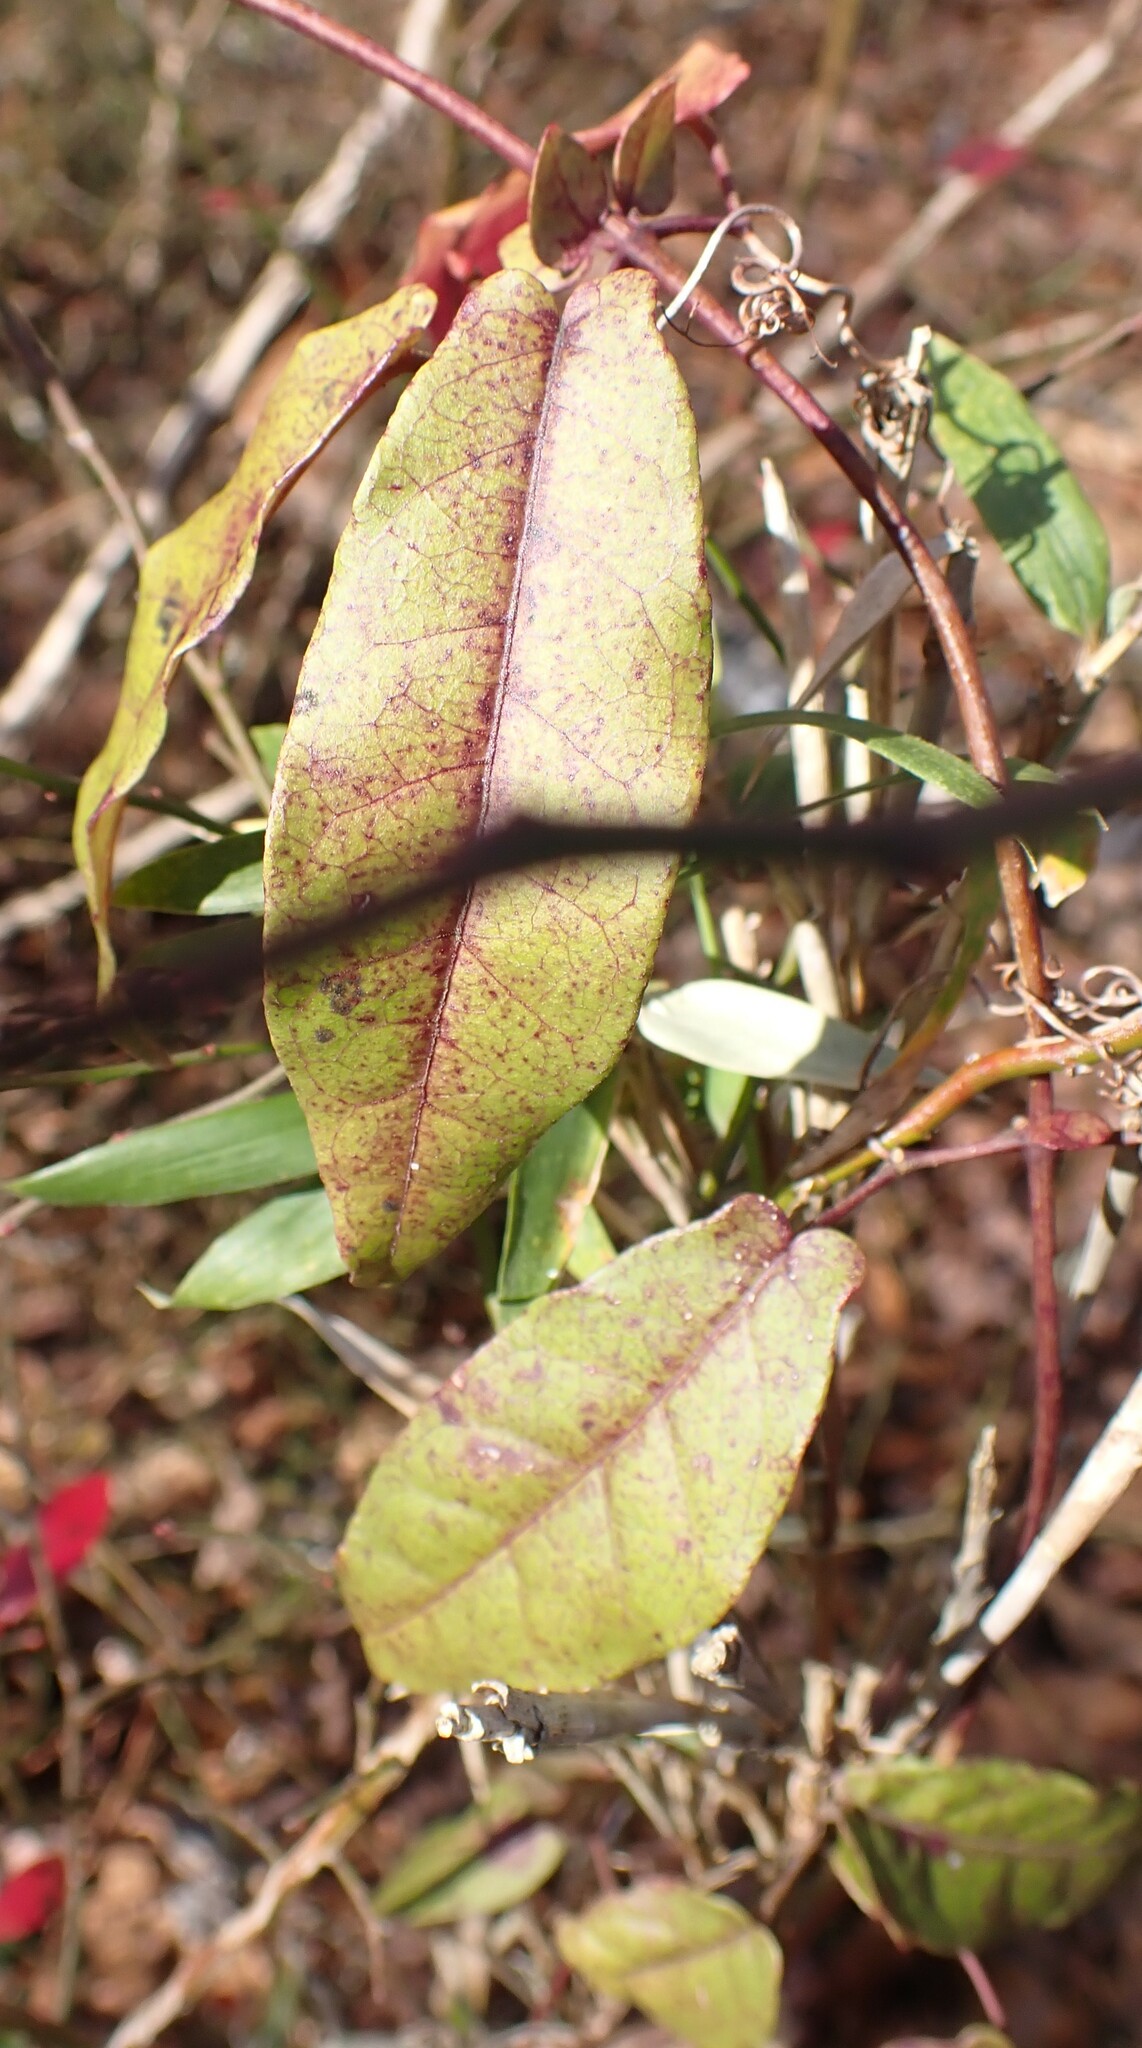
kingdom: Plantae
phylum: Tracheophyta
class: Magnoliopsida
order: Lamiales
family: Bignoniaceae
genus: Bignonia
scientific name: Bignonia capreolata
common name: Crossvine
